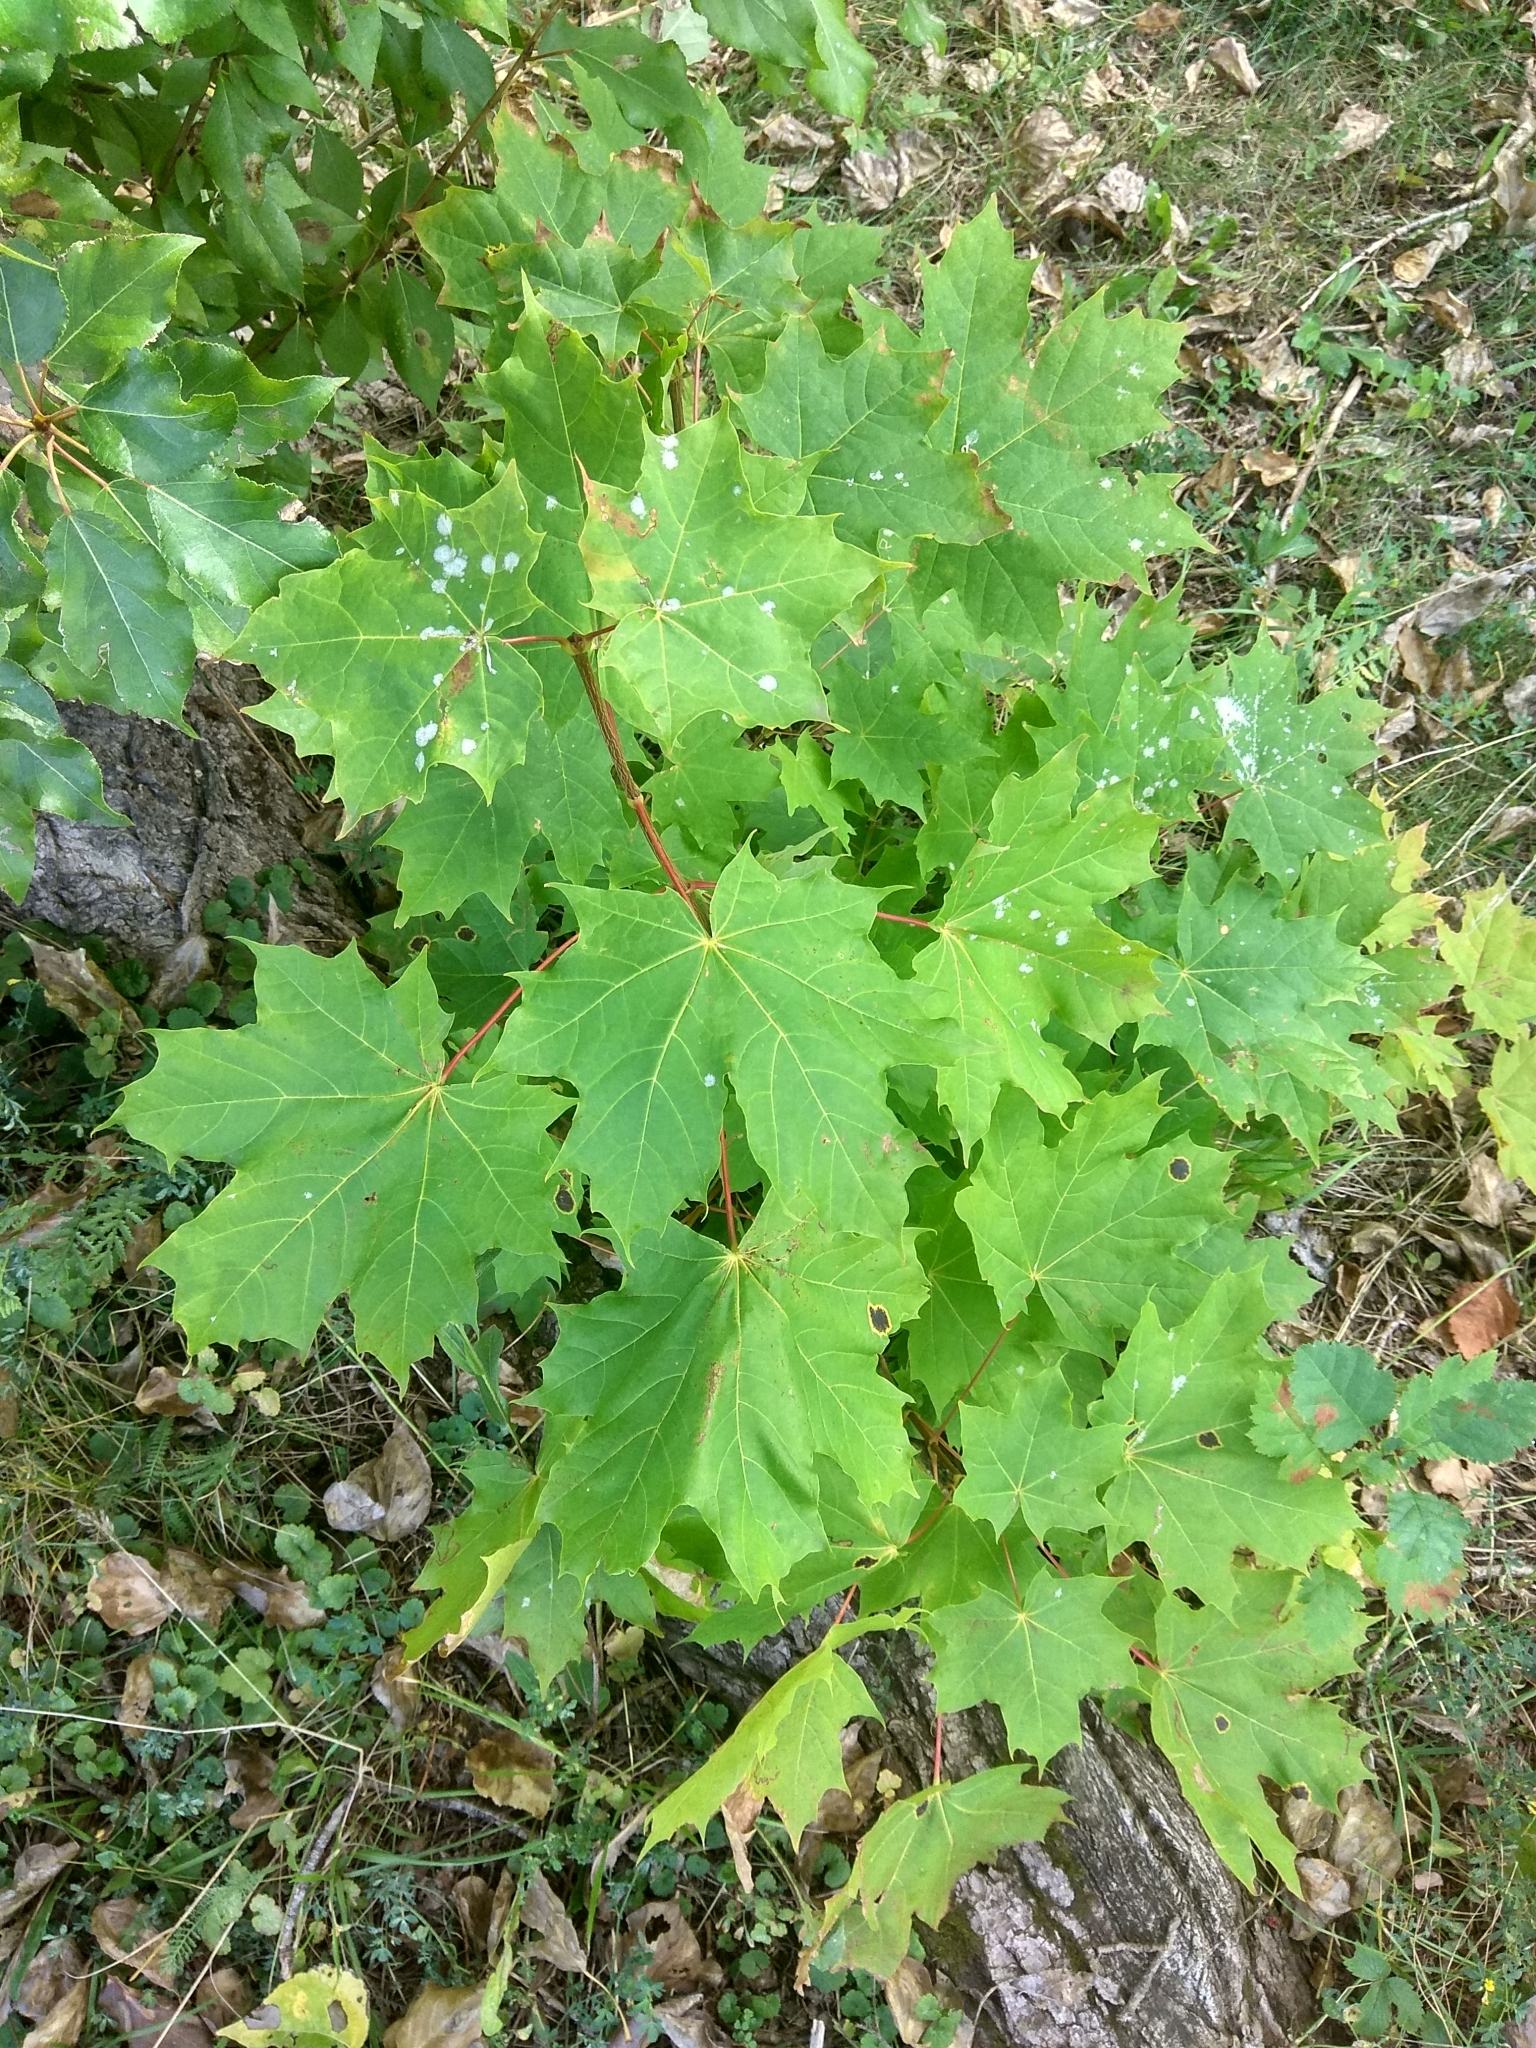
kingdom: Plantae
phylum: Tracheophyta
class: Magnoliopsida
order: Sapindales
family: Sapindaceae
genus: Acer
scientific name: Acer platanoides
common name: Norway maple
